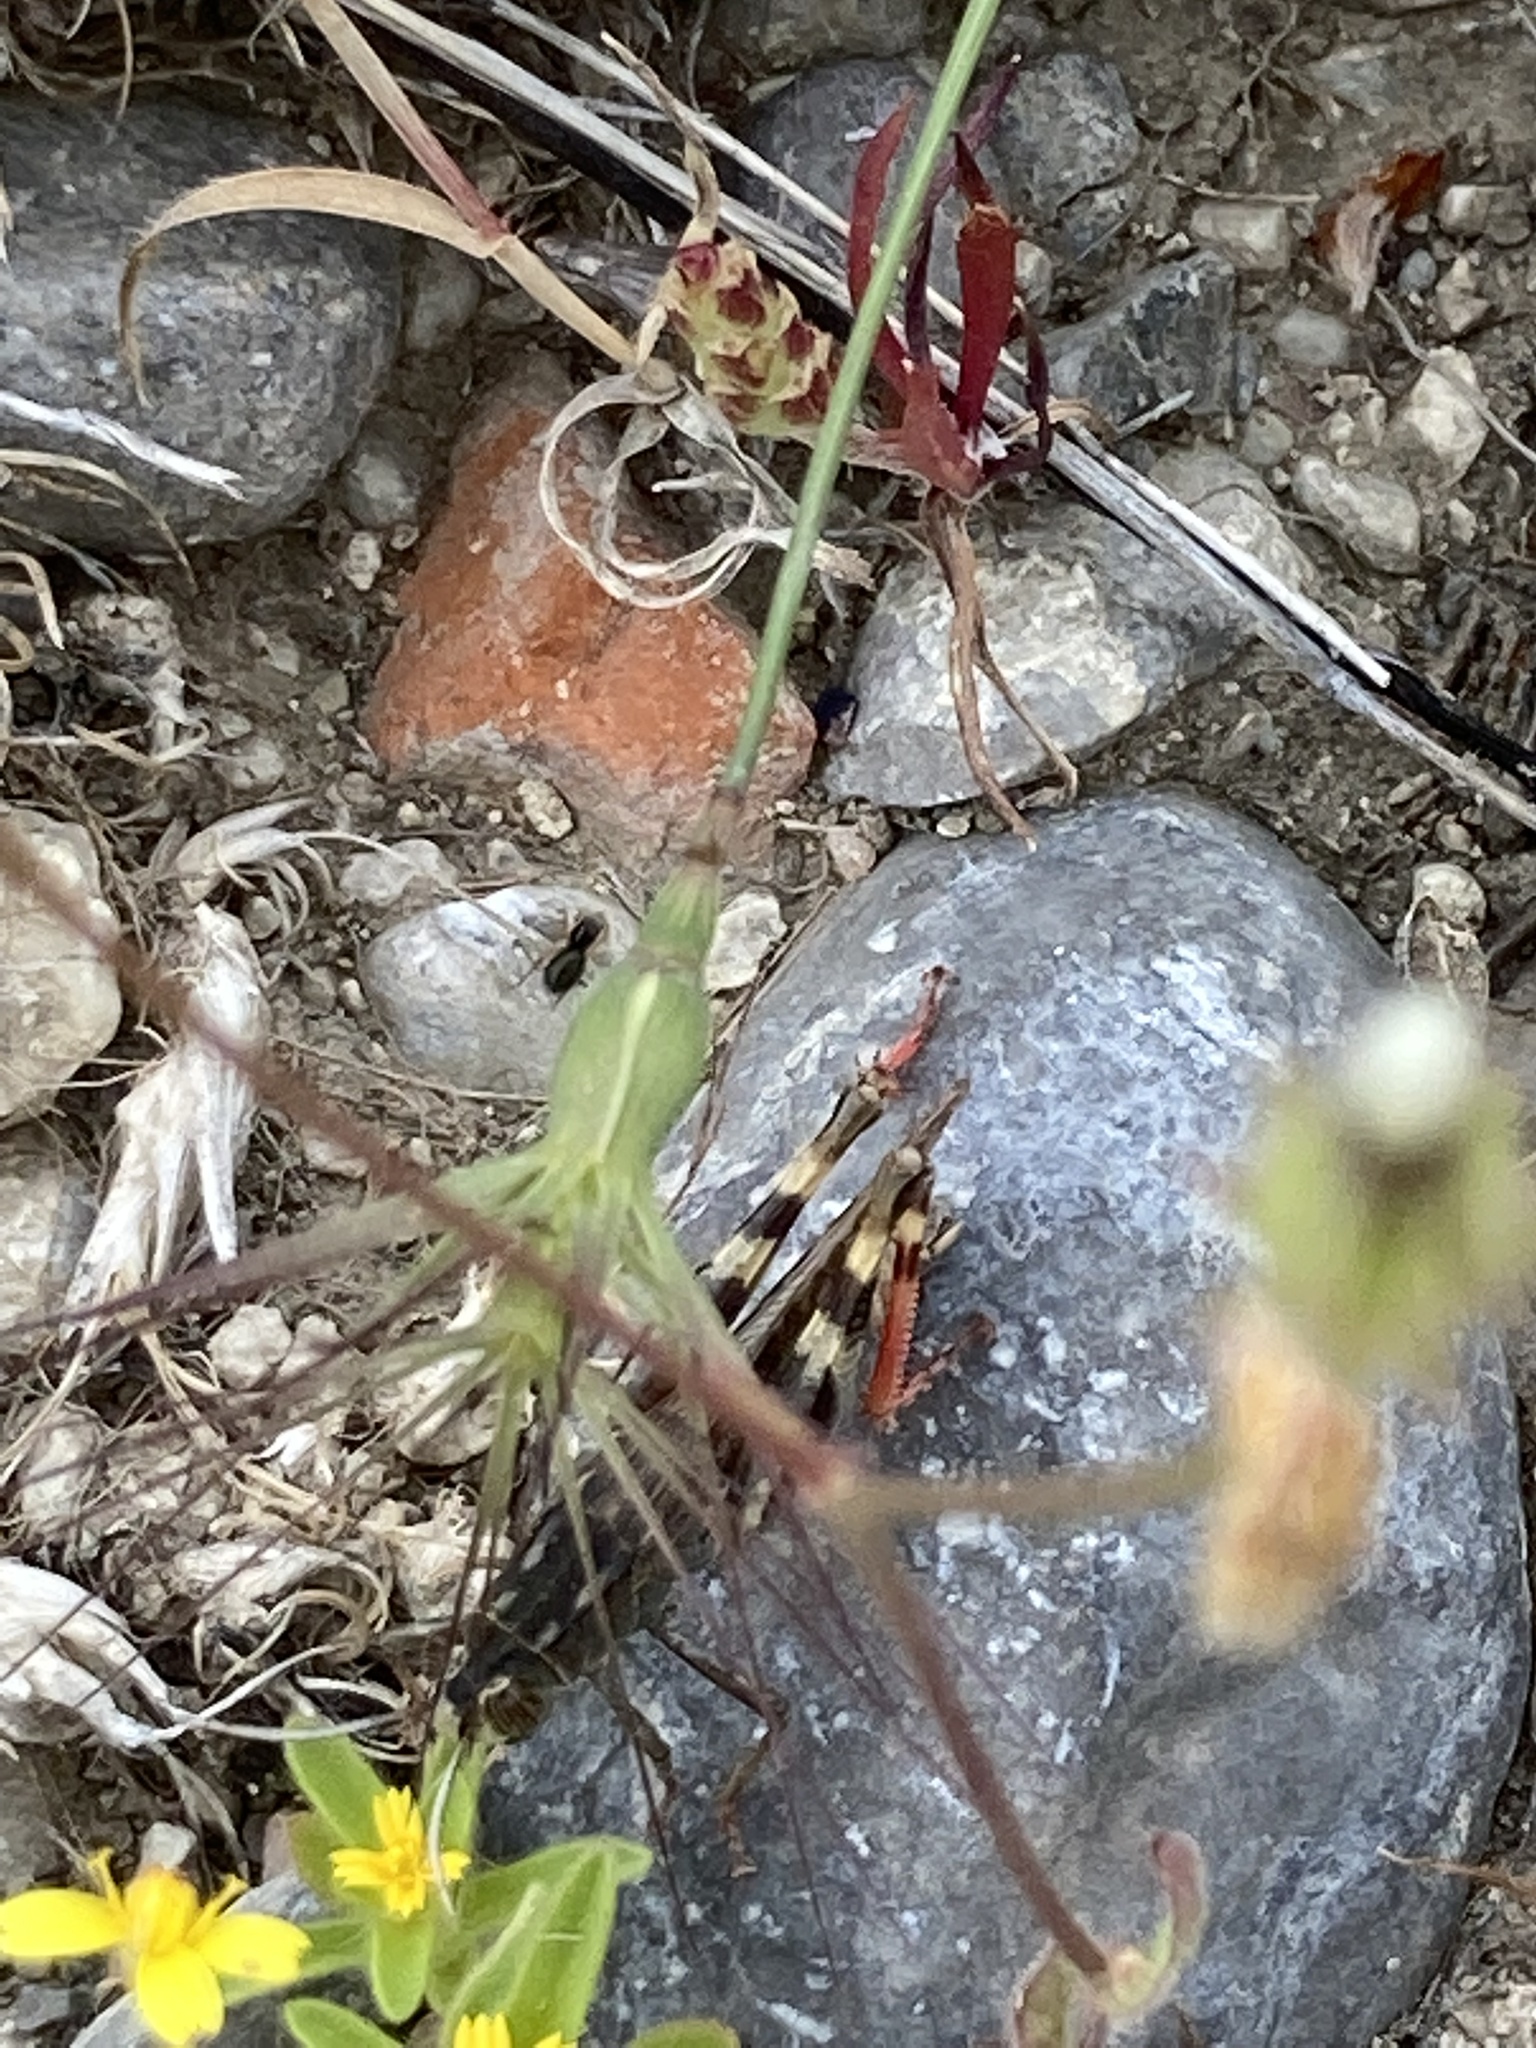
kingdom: Animalia
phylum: Arthropoda
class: Insecta
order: Orthoptera
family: Acrididae
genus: Heteracris
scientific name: Heteracris littoralis
